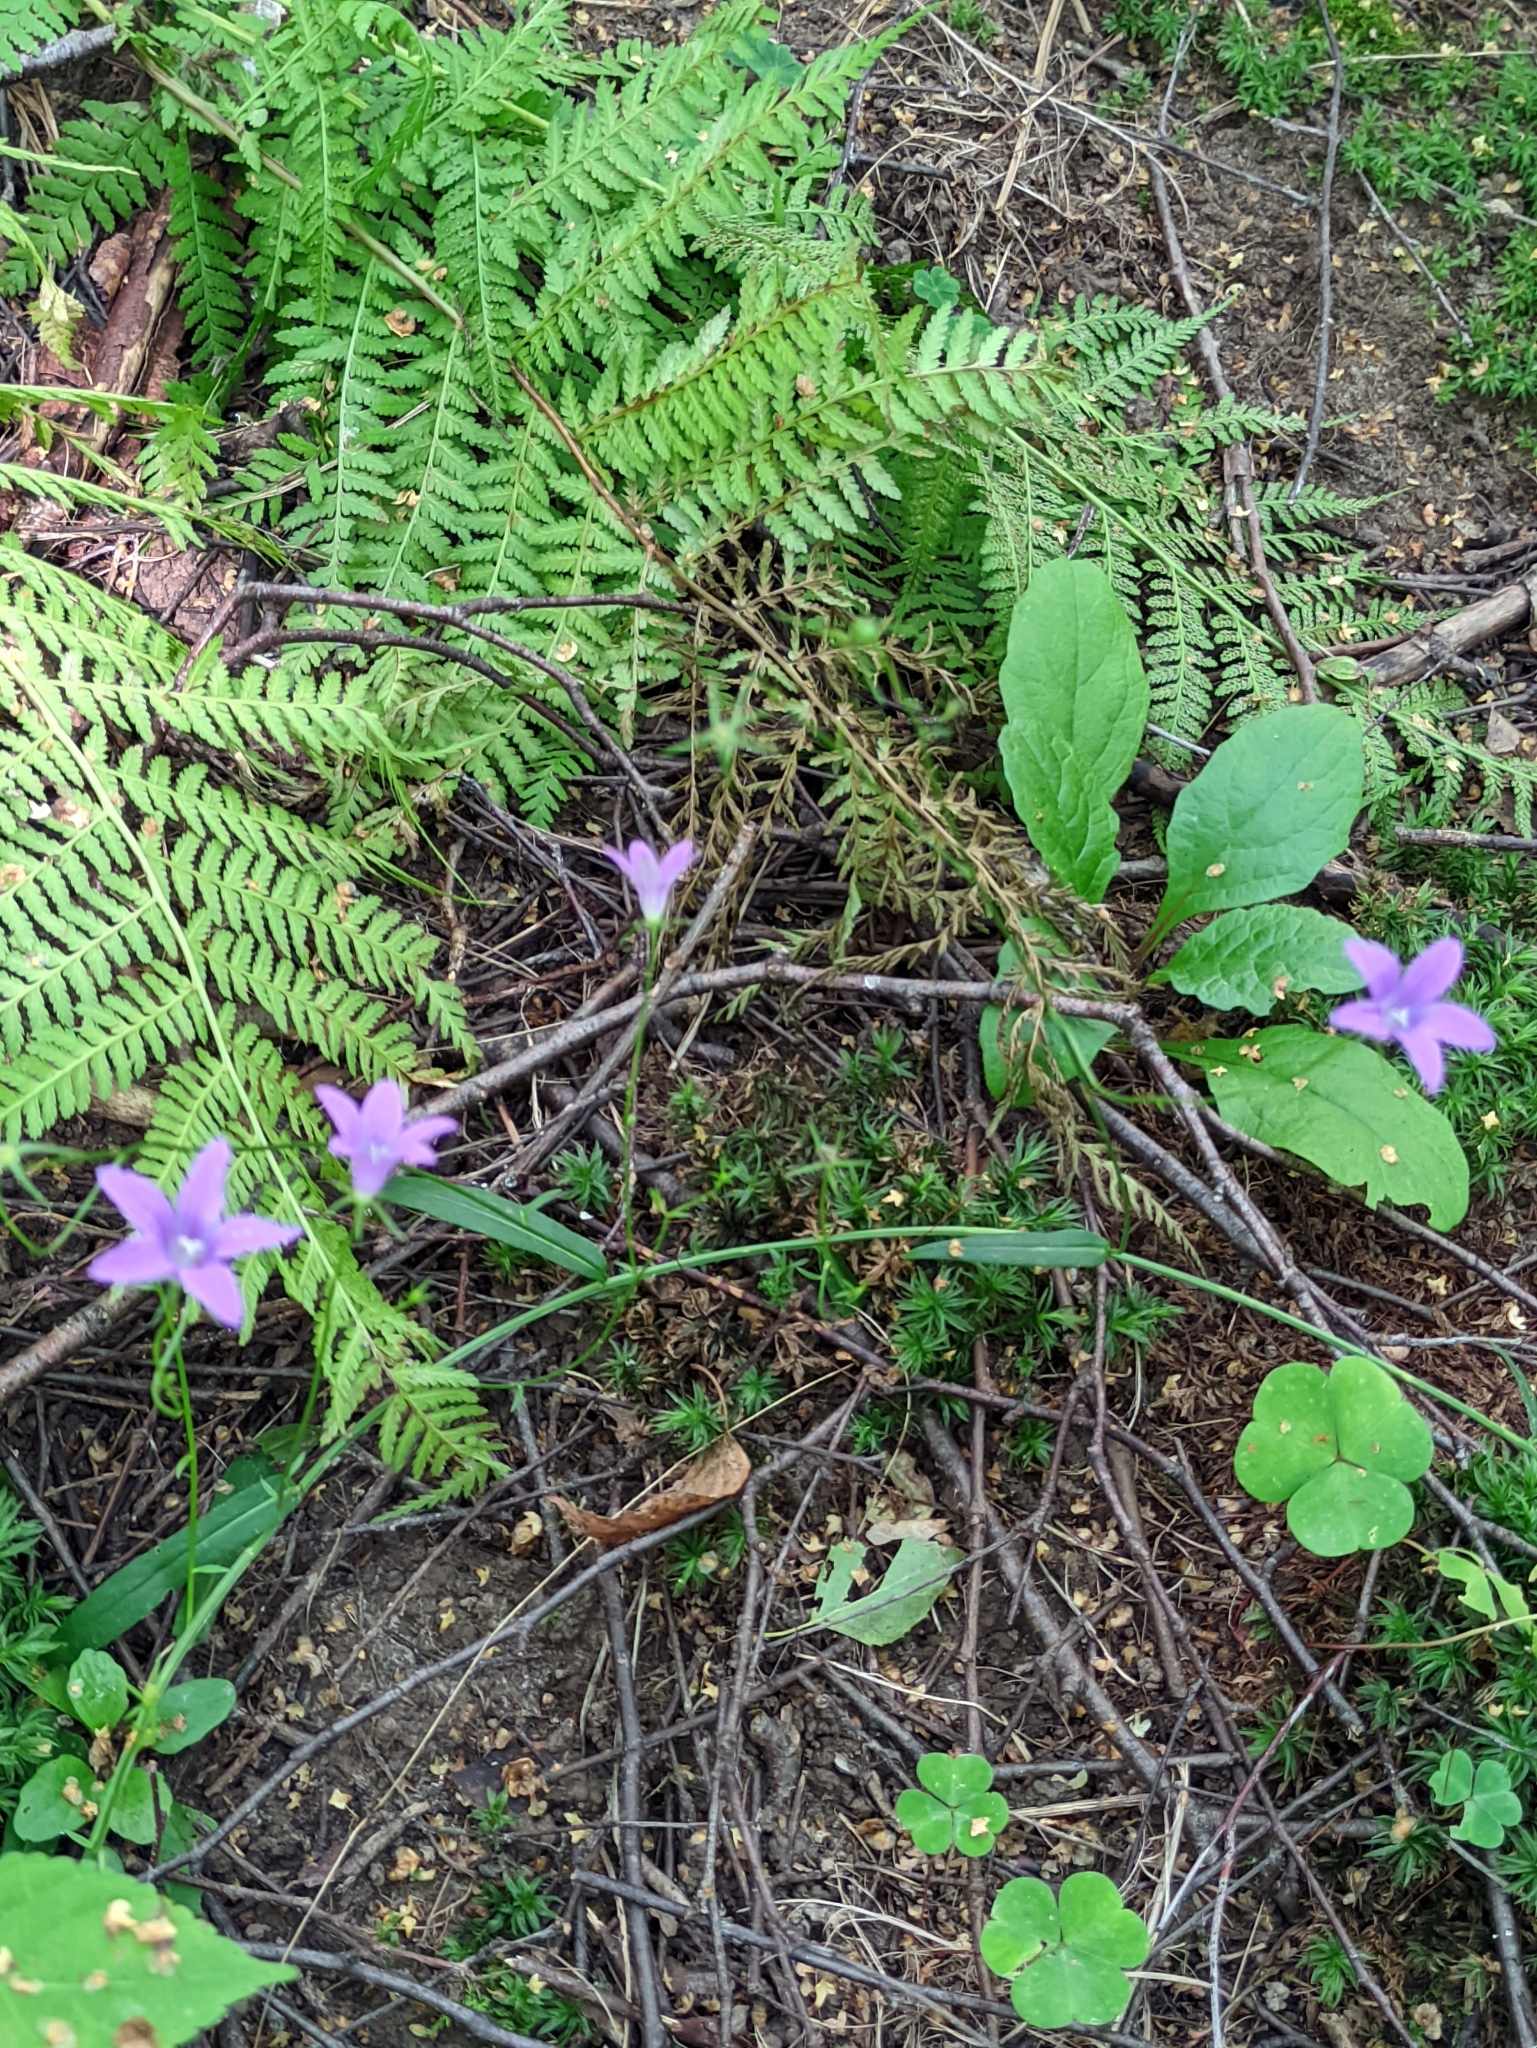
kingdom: Plantae
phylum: Tracheophyta
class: Magnoliopsida
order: Asterales
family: Campanulaceae
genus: Campanula
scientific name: Campanula patula
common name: Spreading bellflower
